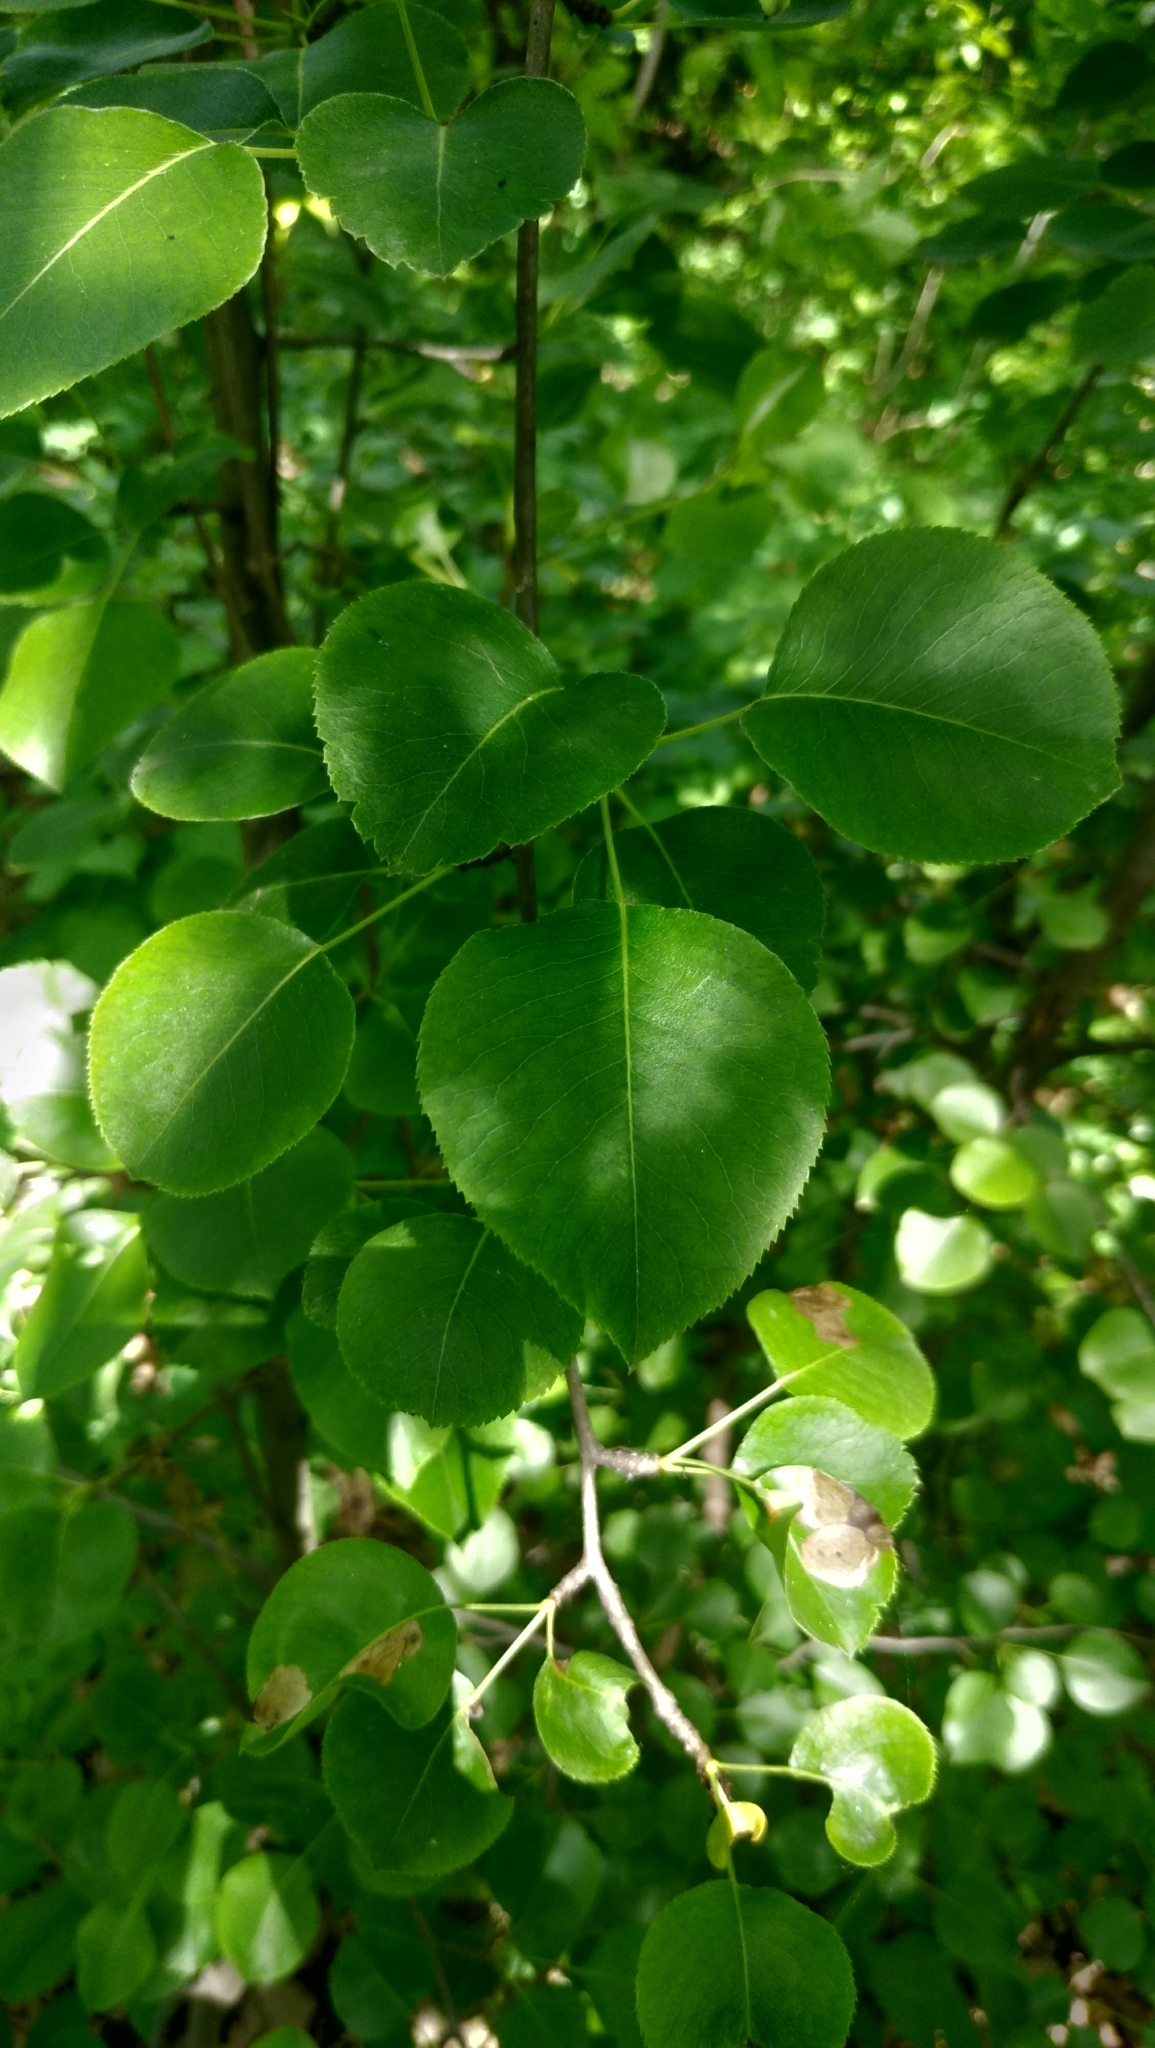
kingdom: Plantae
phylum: Tracheophyta
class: Magnoliopsida
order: Rosales
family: Rosaceae
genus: Pyrus
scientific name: Pyrus communis
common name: Pear
